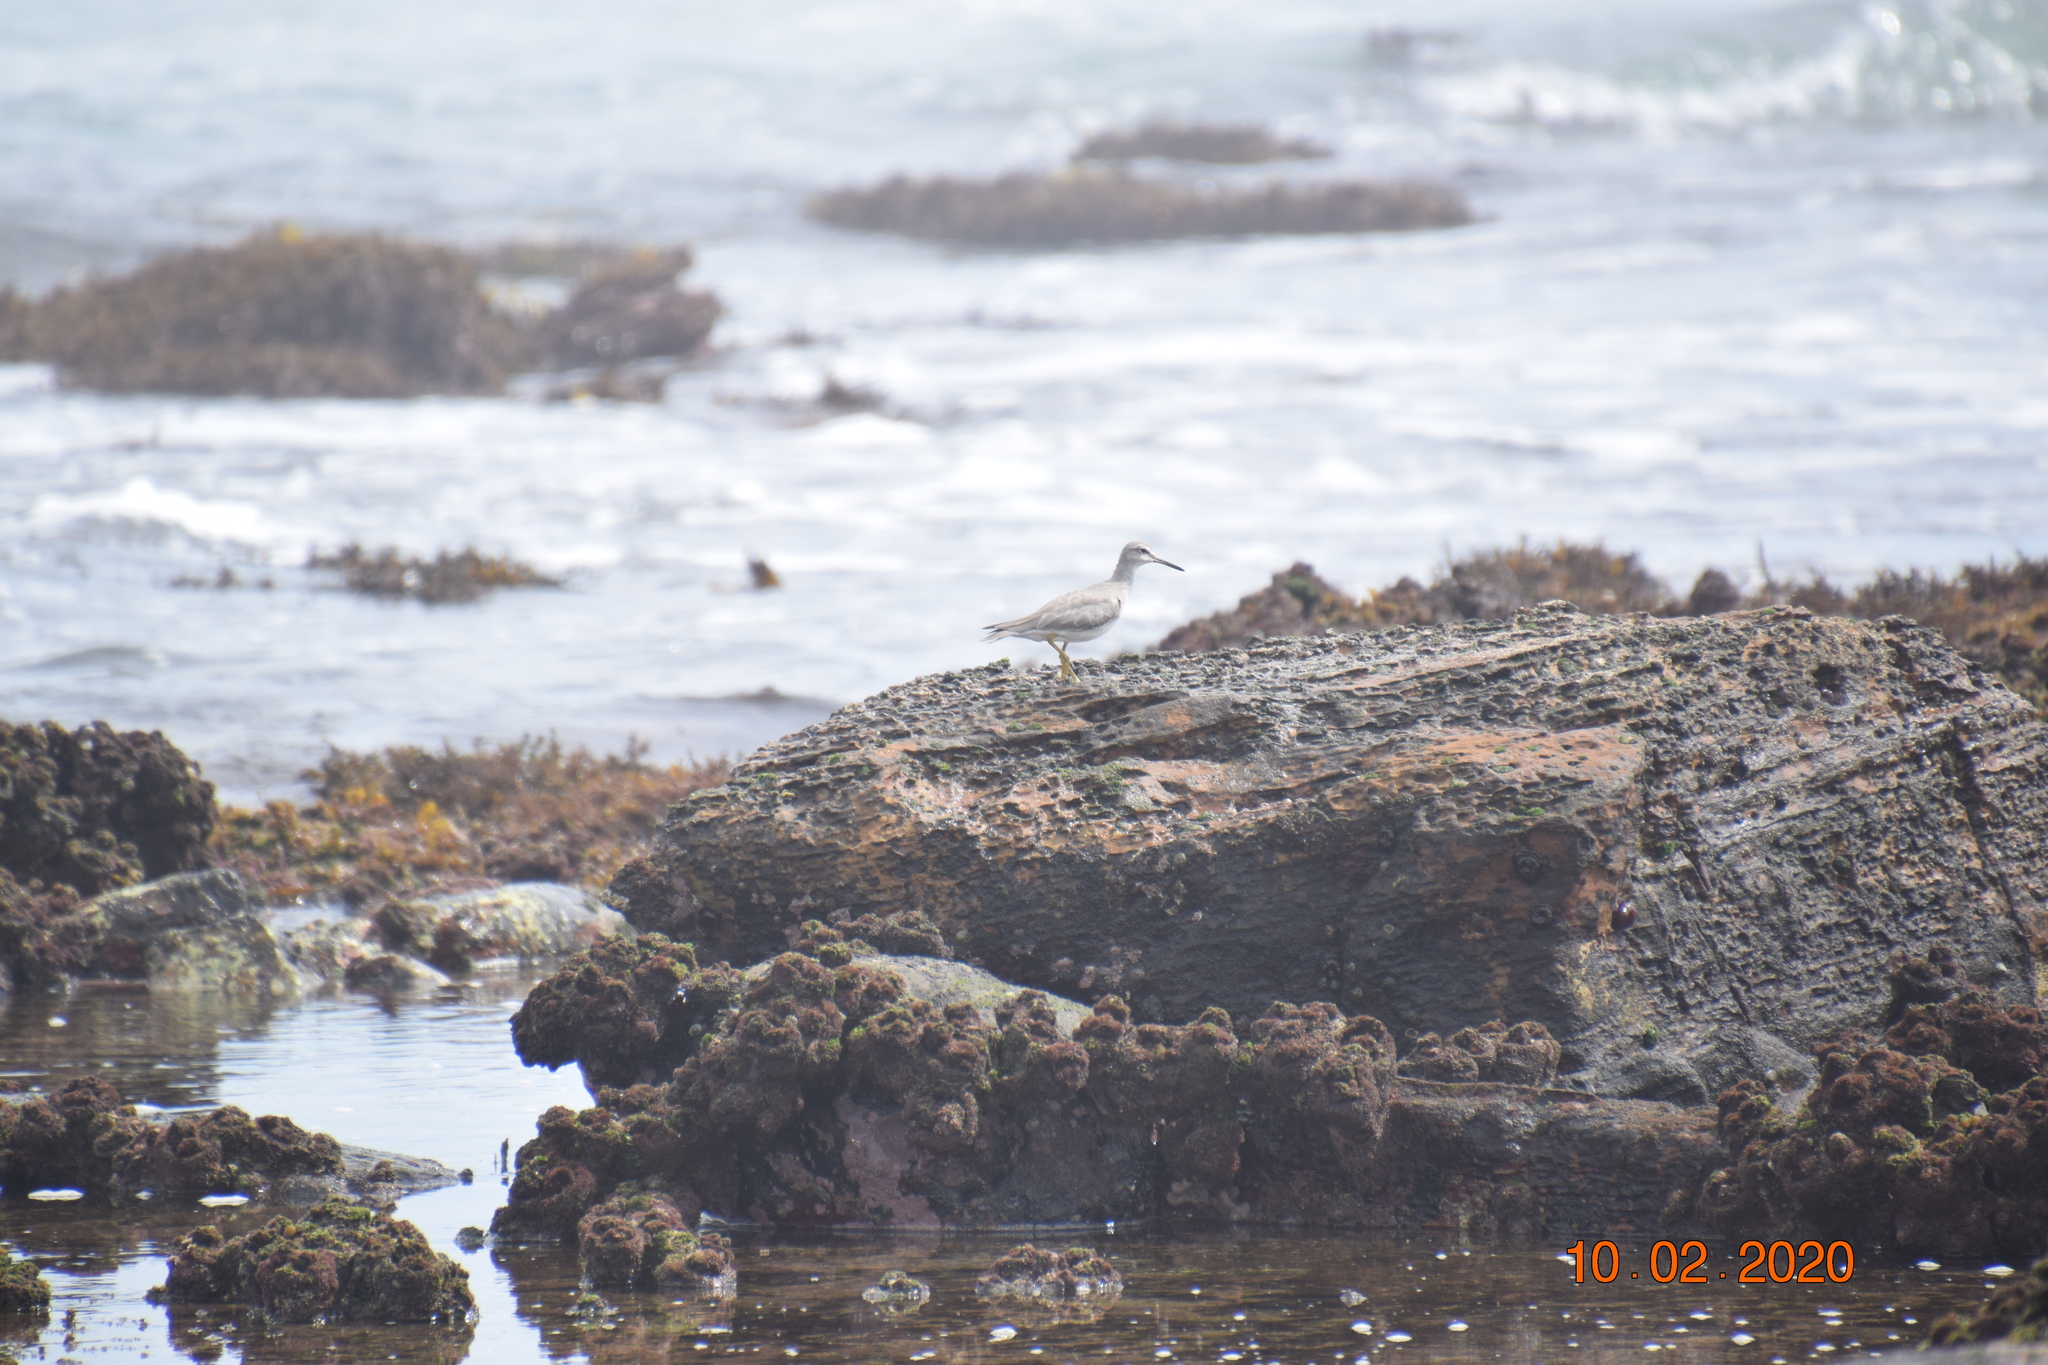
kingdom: Animalia
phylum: Chordata
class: Aves
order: Charadriiformes
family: Scolopacidae
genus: Tringa
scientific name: Tringa brevipes
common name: Grey-tailed tattler
